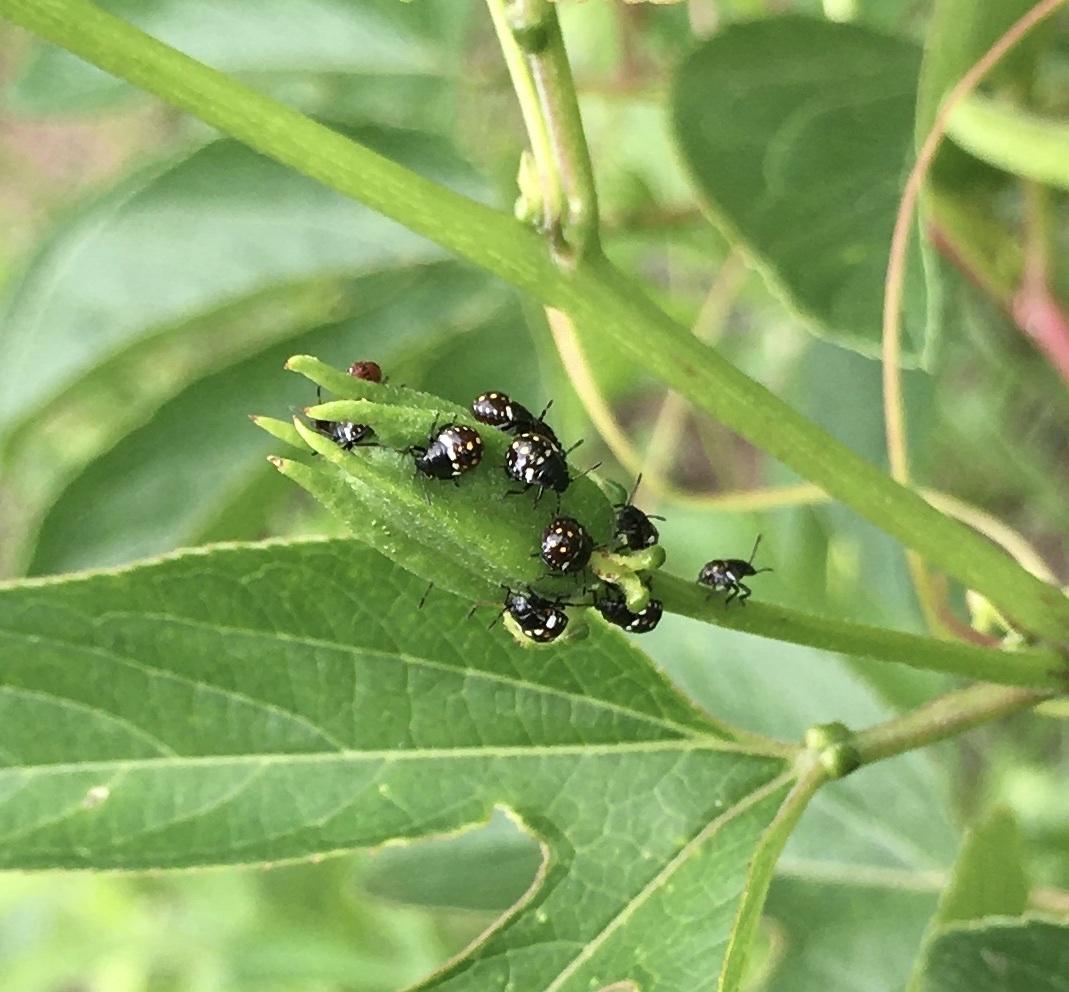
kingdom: Animalia
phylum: Arthropoda
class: Insecta
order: Hemiptera
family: Pentatomidae
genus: Nezara
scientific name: Nezara viridula
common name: Southern green stink bug
